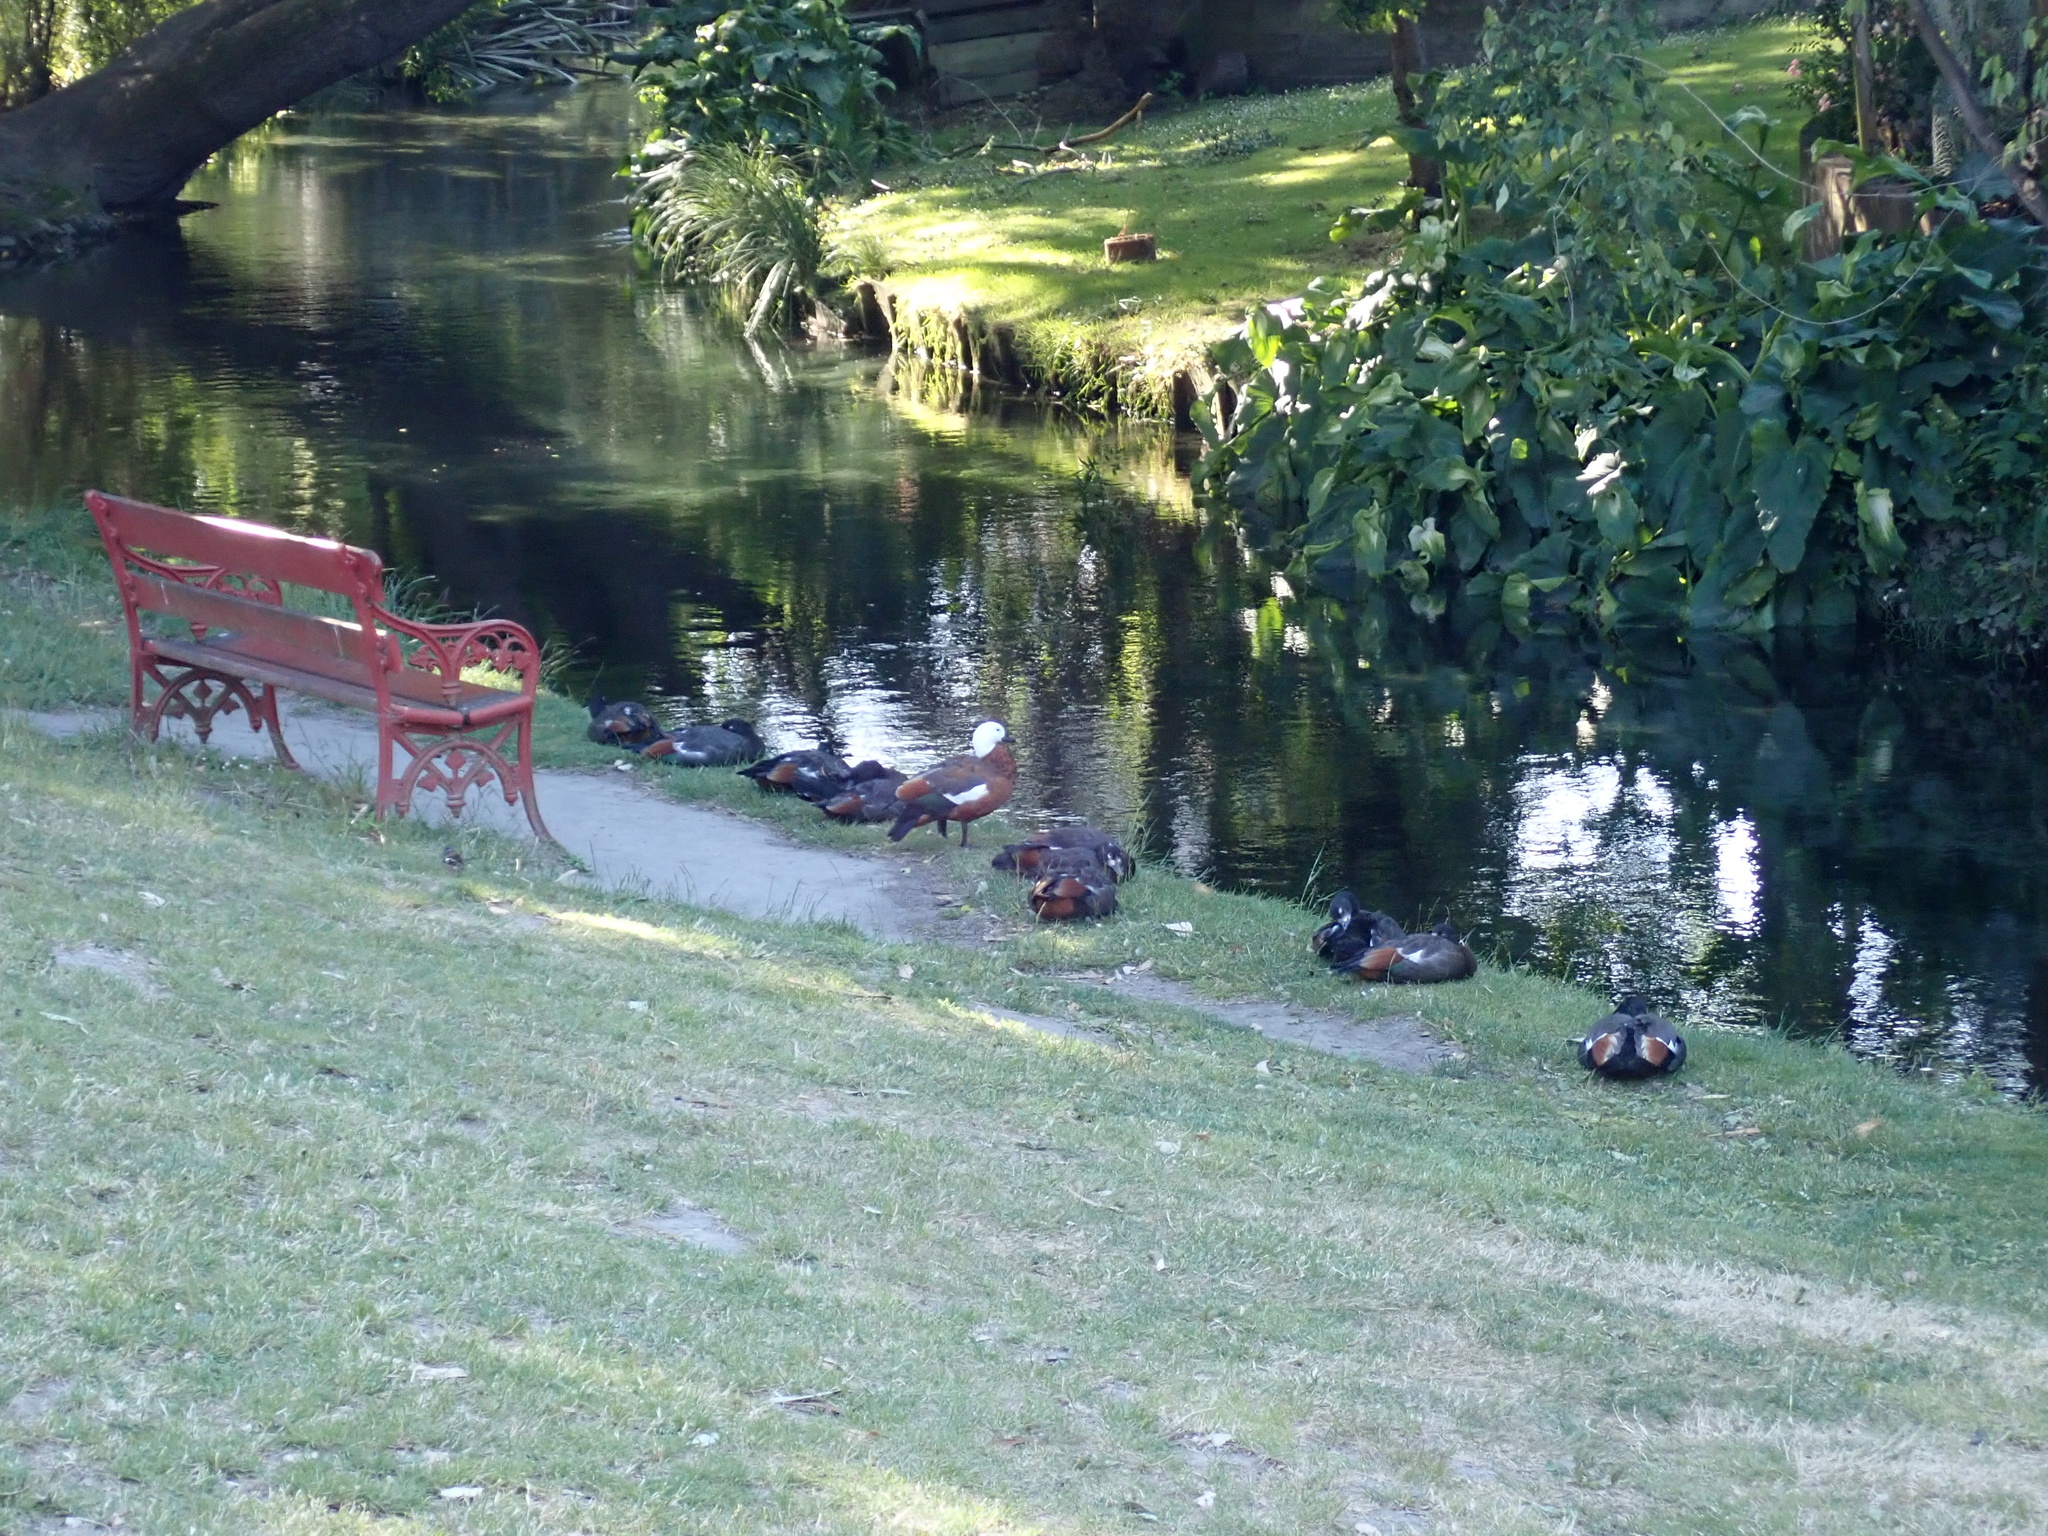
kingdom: Animalia
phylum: Chordata
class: Aves
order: Anseriformes
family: Anatidae
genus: Tadorna
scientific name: Tadorna variegata
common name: Paradise shelduck
